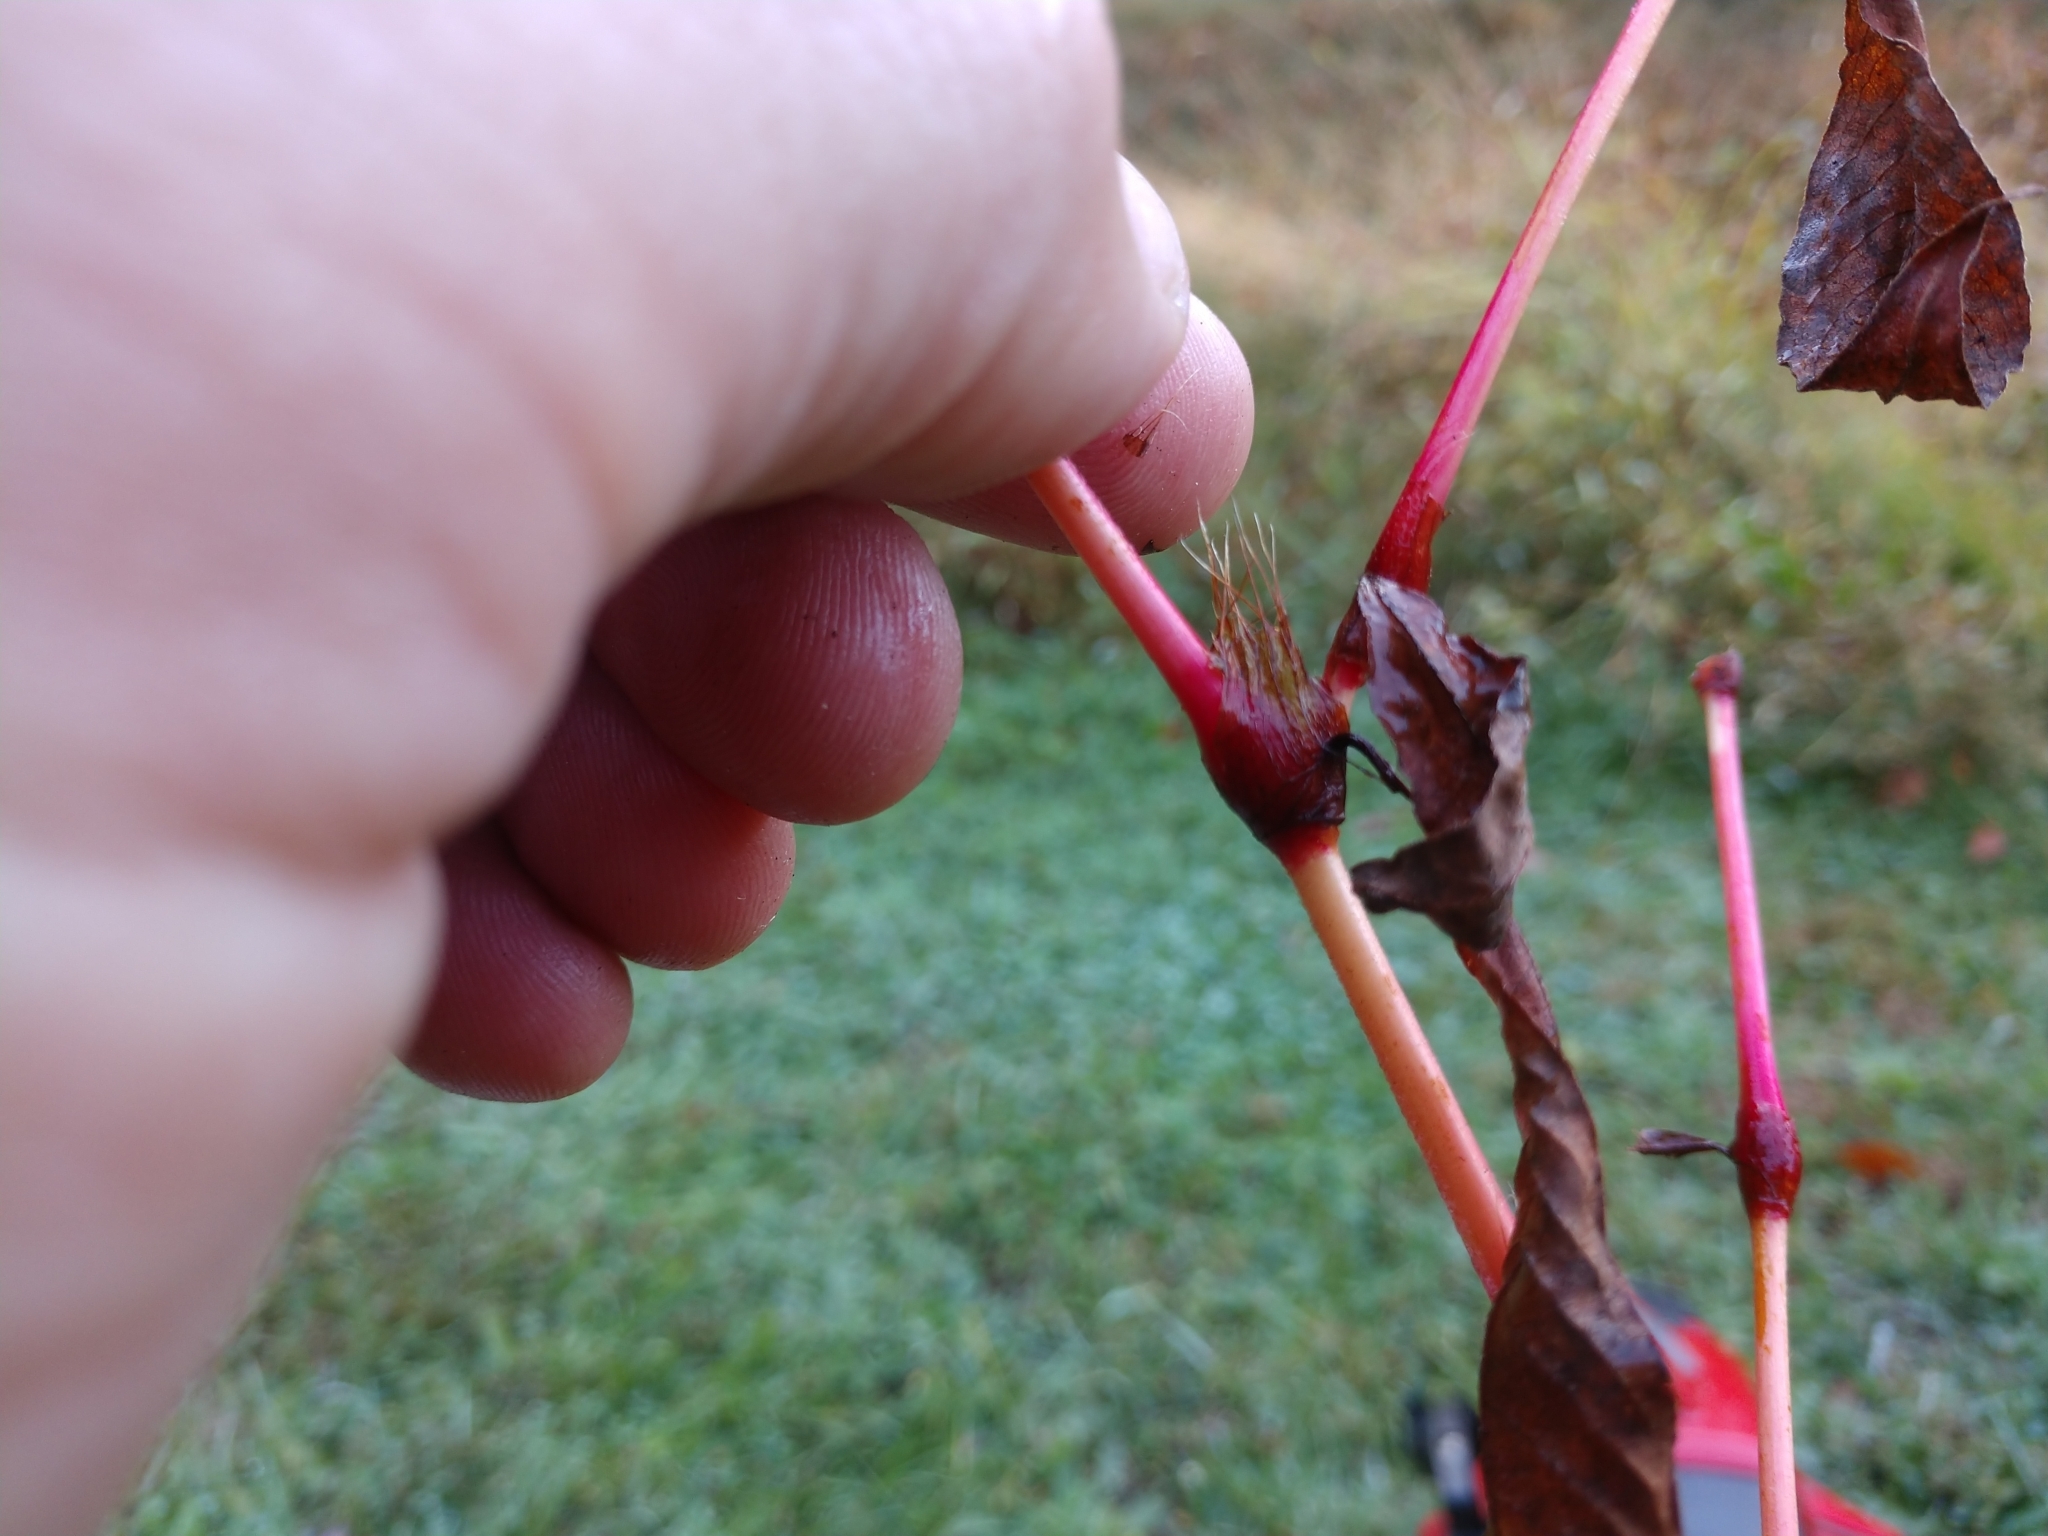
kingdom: Plantae
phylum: Tracheophyta
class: Magnoliopsida
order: Caryophyllales
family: Polygonaceae
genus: Persicaria
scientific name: Persicaria hydropiper
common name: Water-pepper
